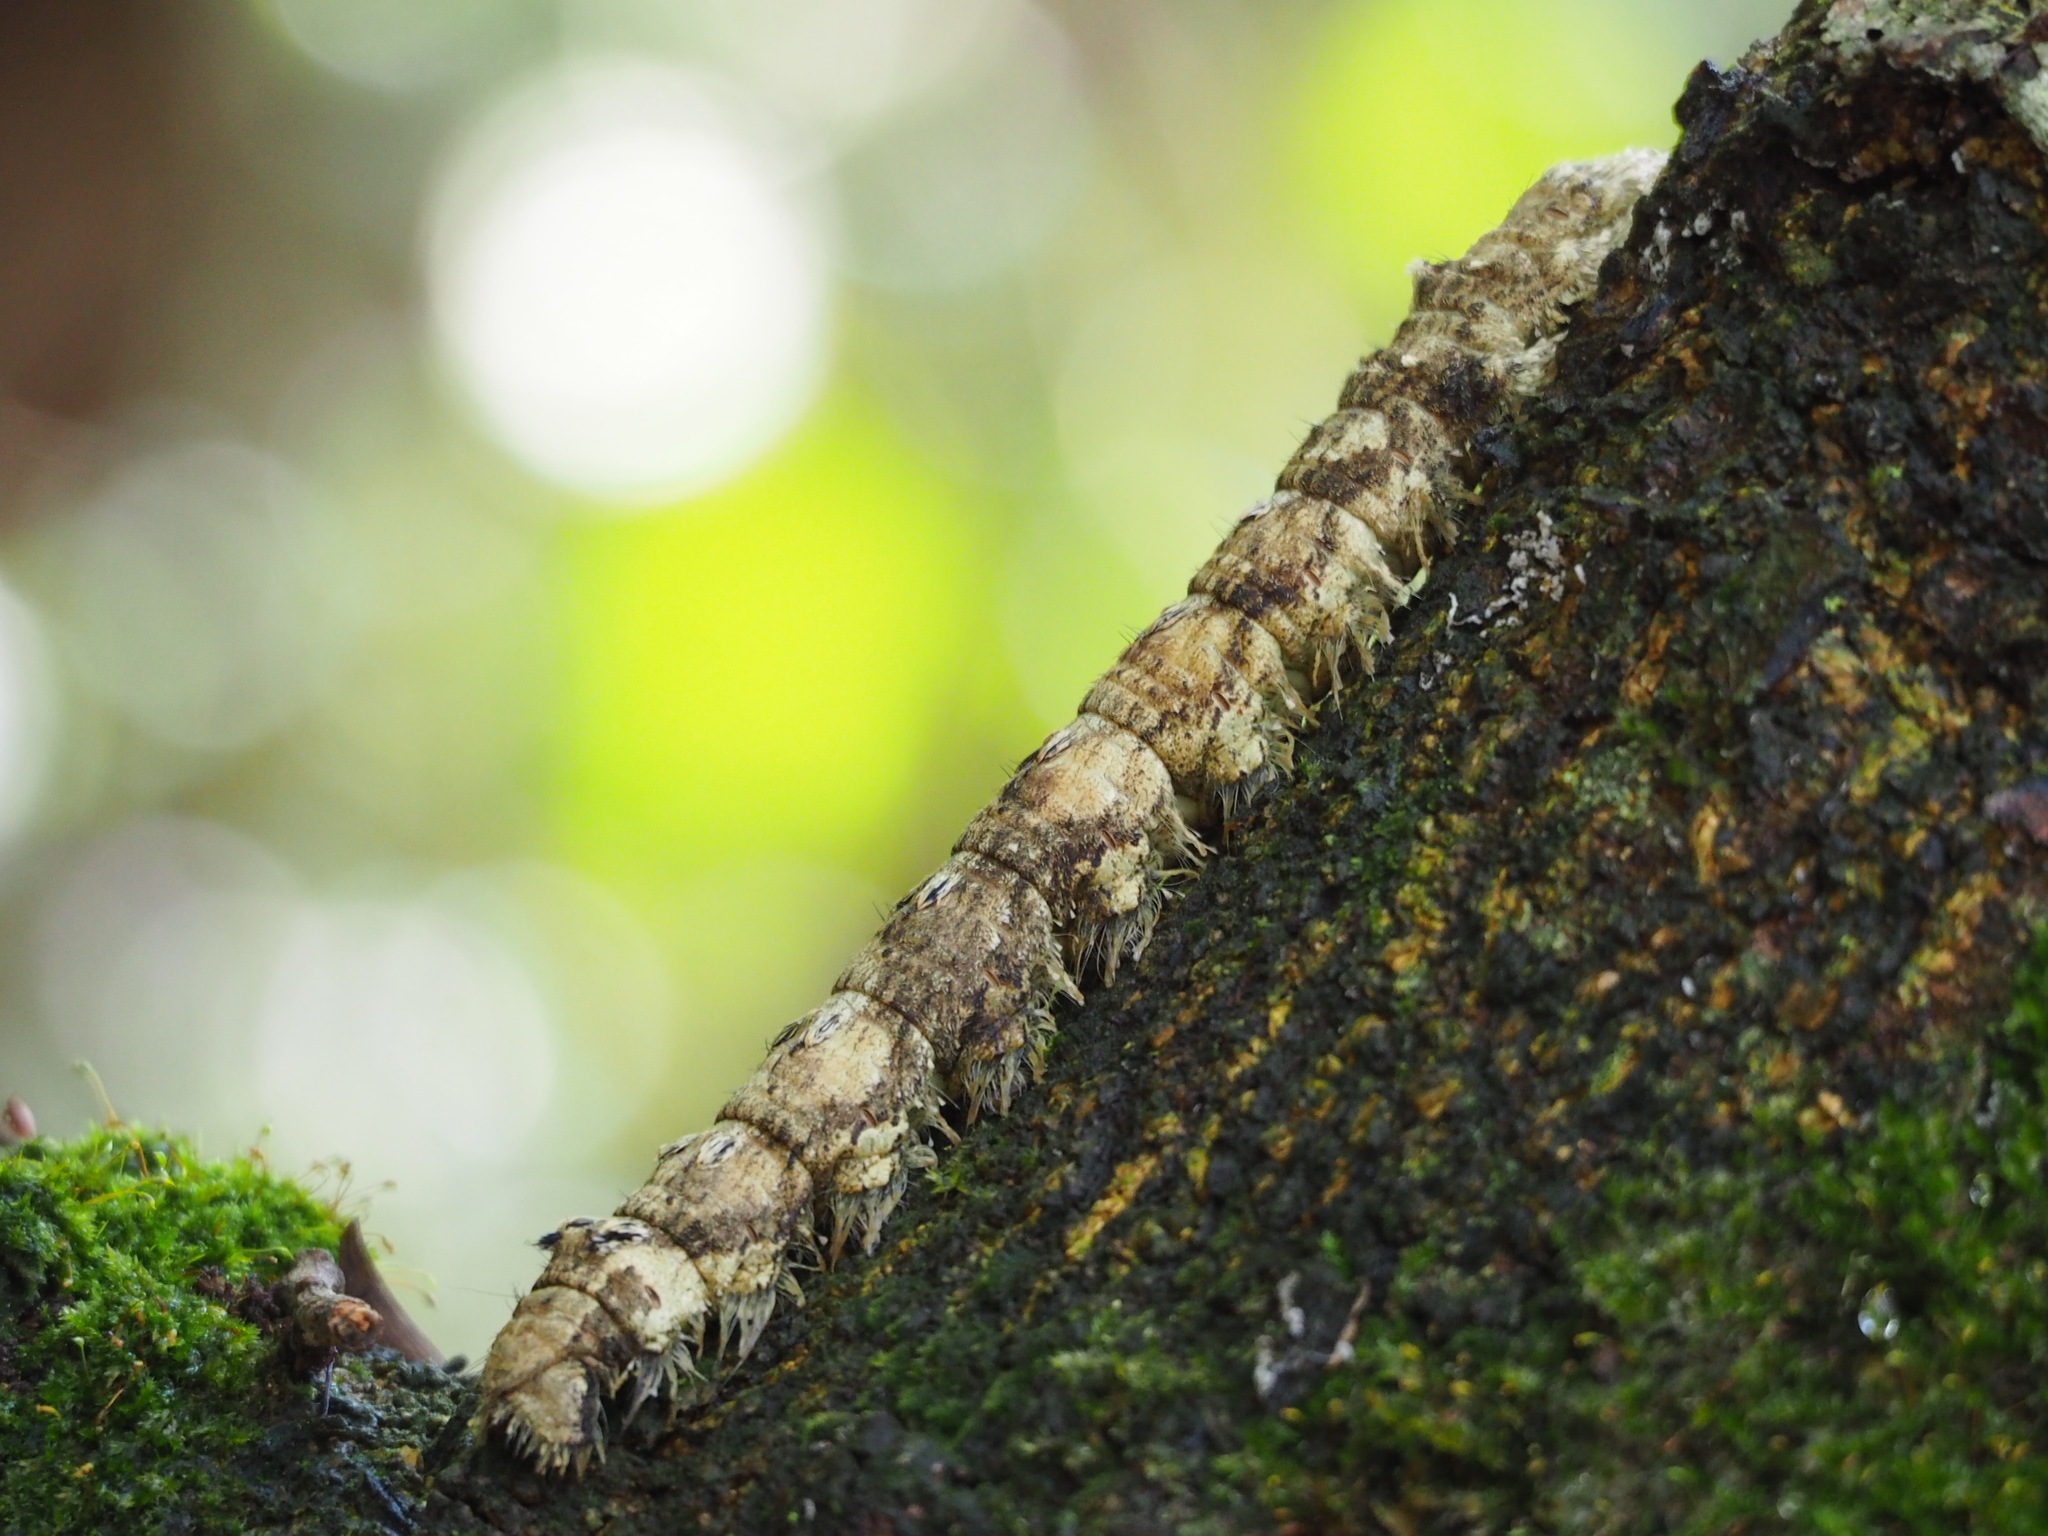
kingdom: Animalia
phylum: Arthropoda
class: Insecta
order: Lepidoptera
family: Lasiocampidae
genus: Lebeda
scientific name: Lebeda nobilis
